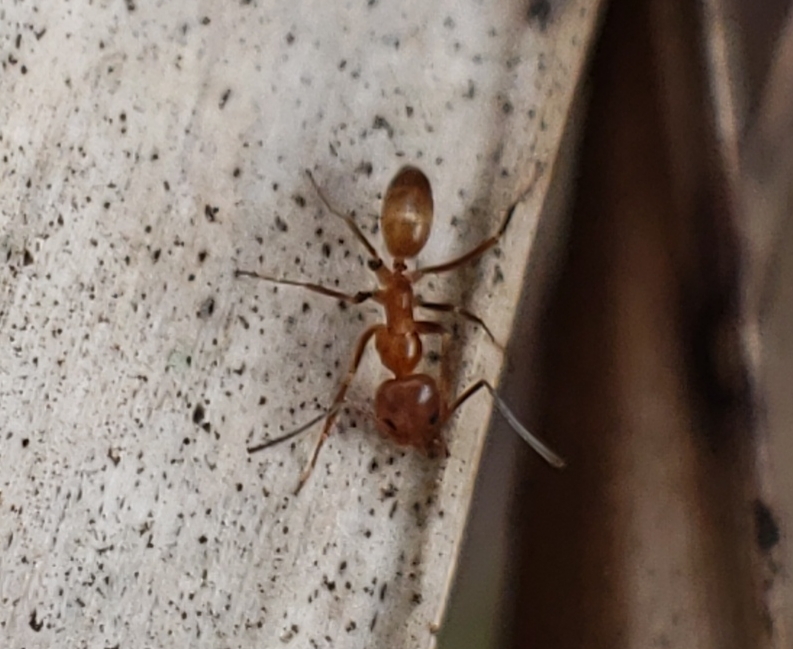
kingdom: Animalia
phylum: Arthropoda
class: Insecta
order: Hymenoptera
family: Formicidae
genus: Dorymyrmex
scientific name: Dorymyrmex bureni
